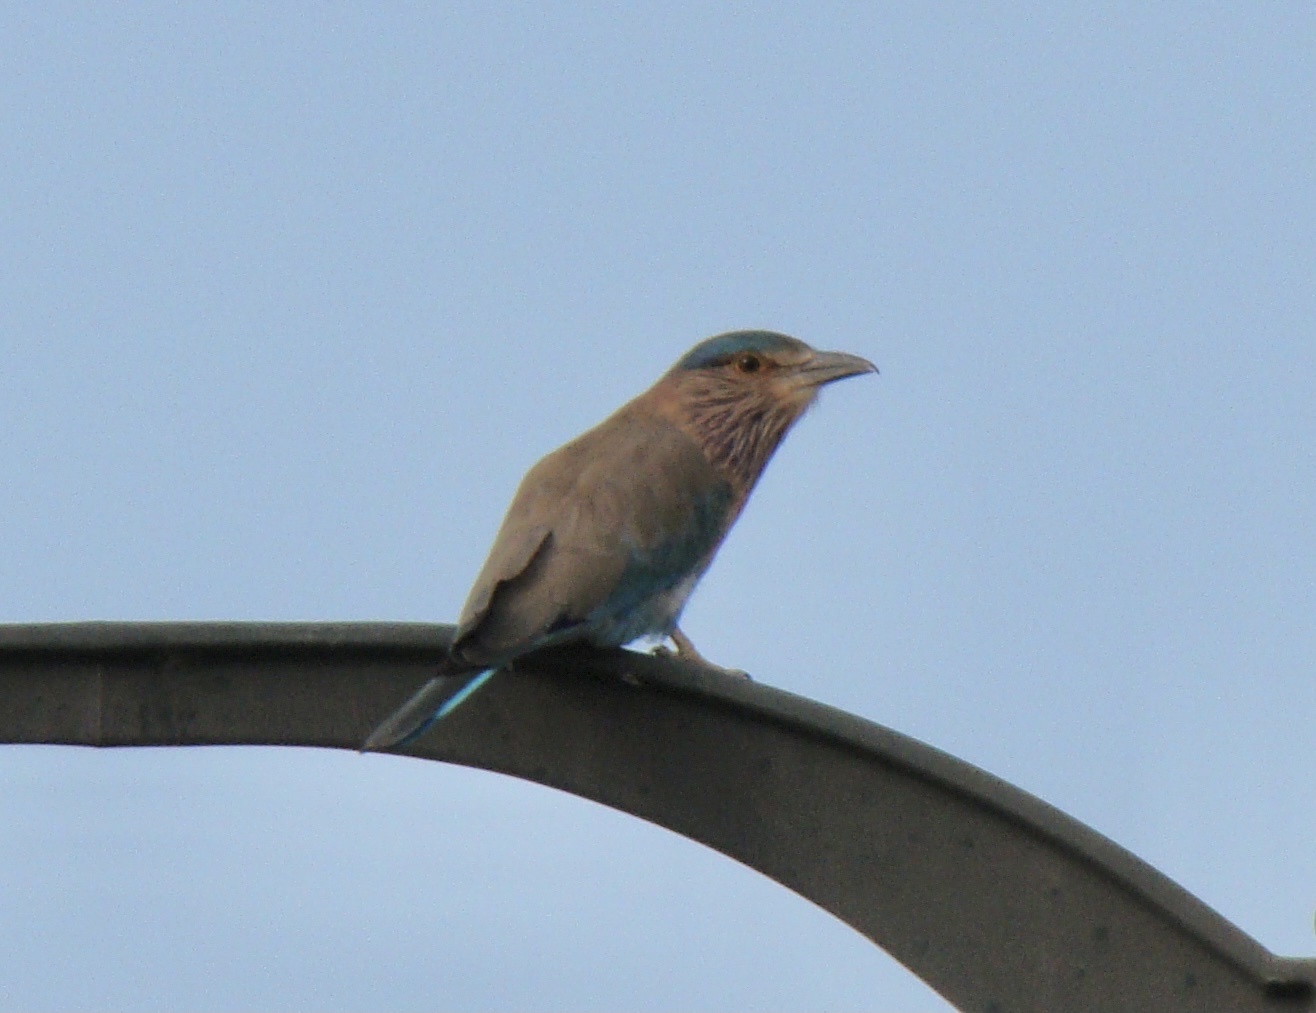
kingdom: Animalia
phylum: Chordata
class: Aves
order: Coraciiformes
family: Coraciidae
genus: Coracias
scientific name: Coracias benghalensis
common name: Indian roller
